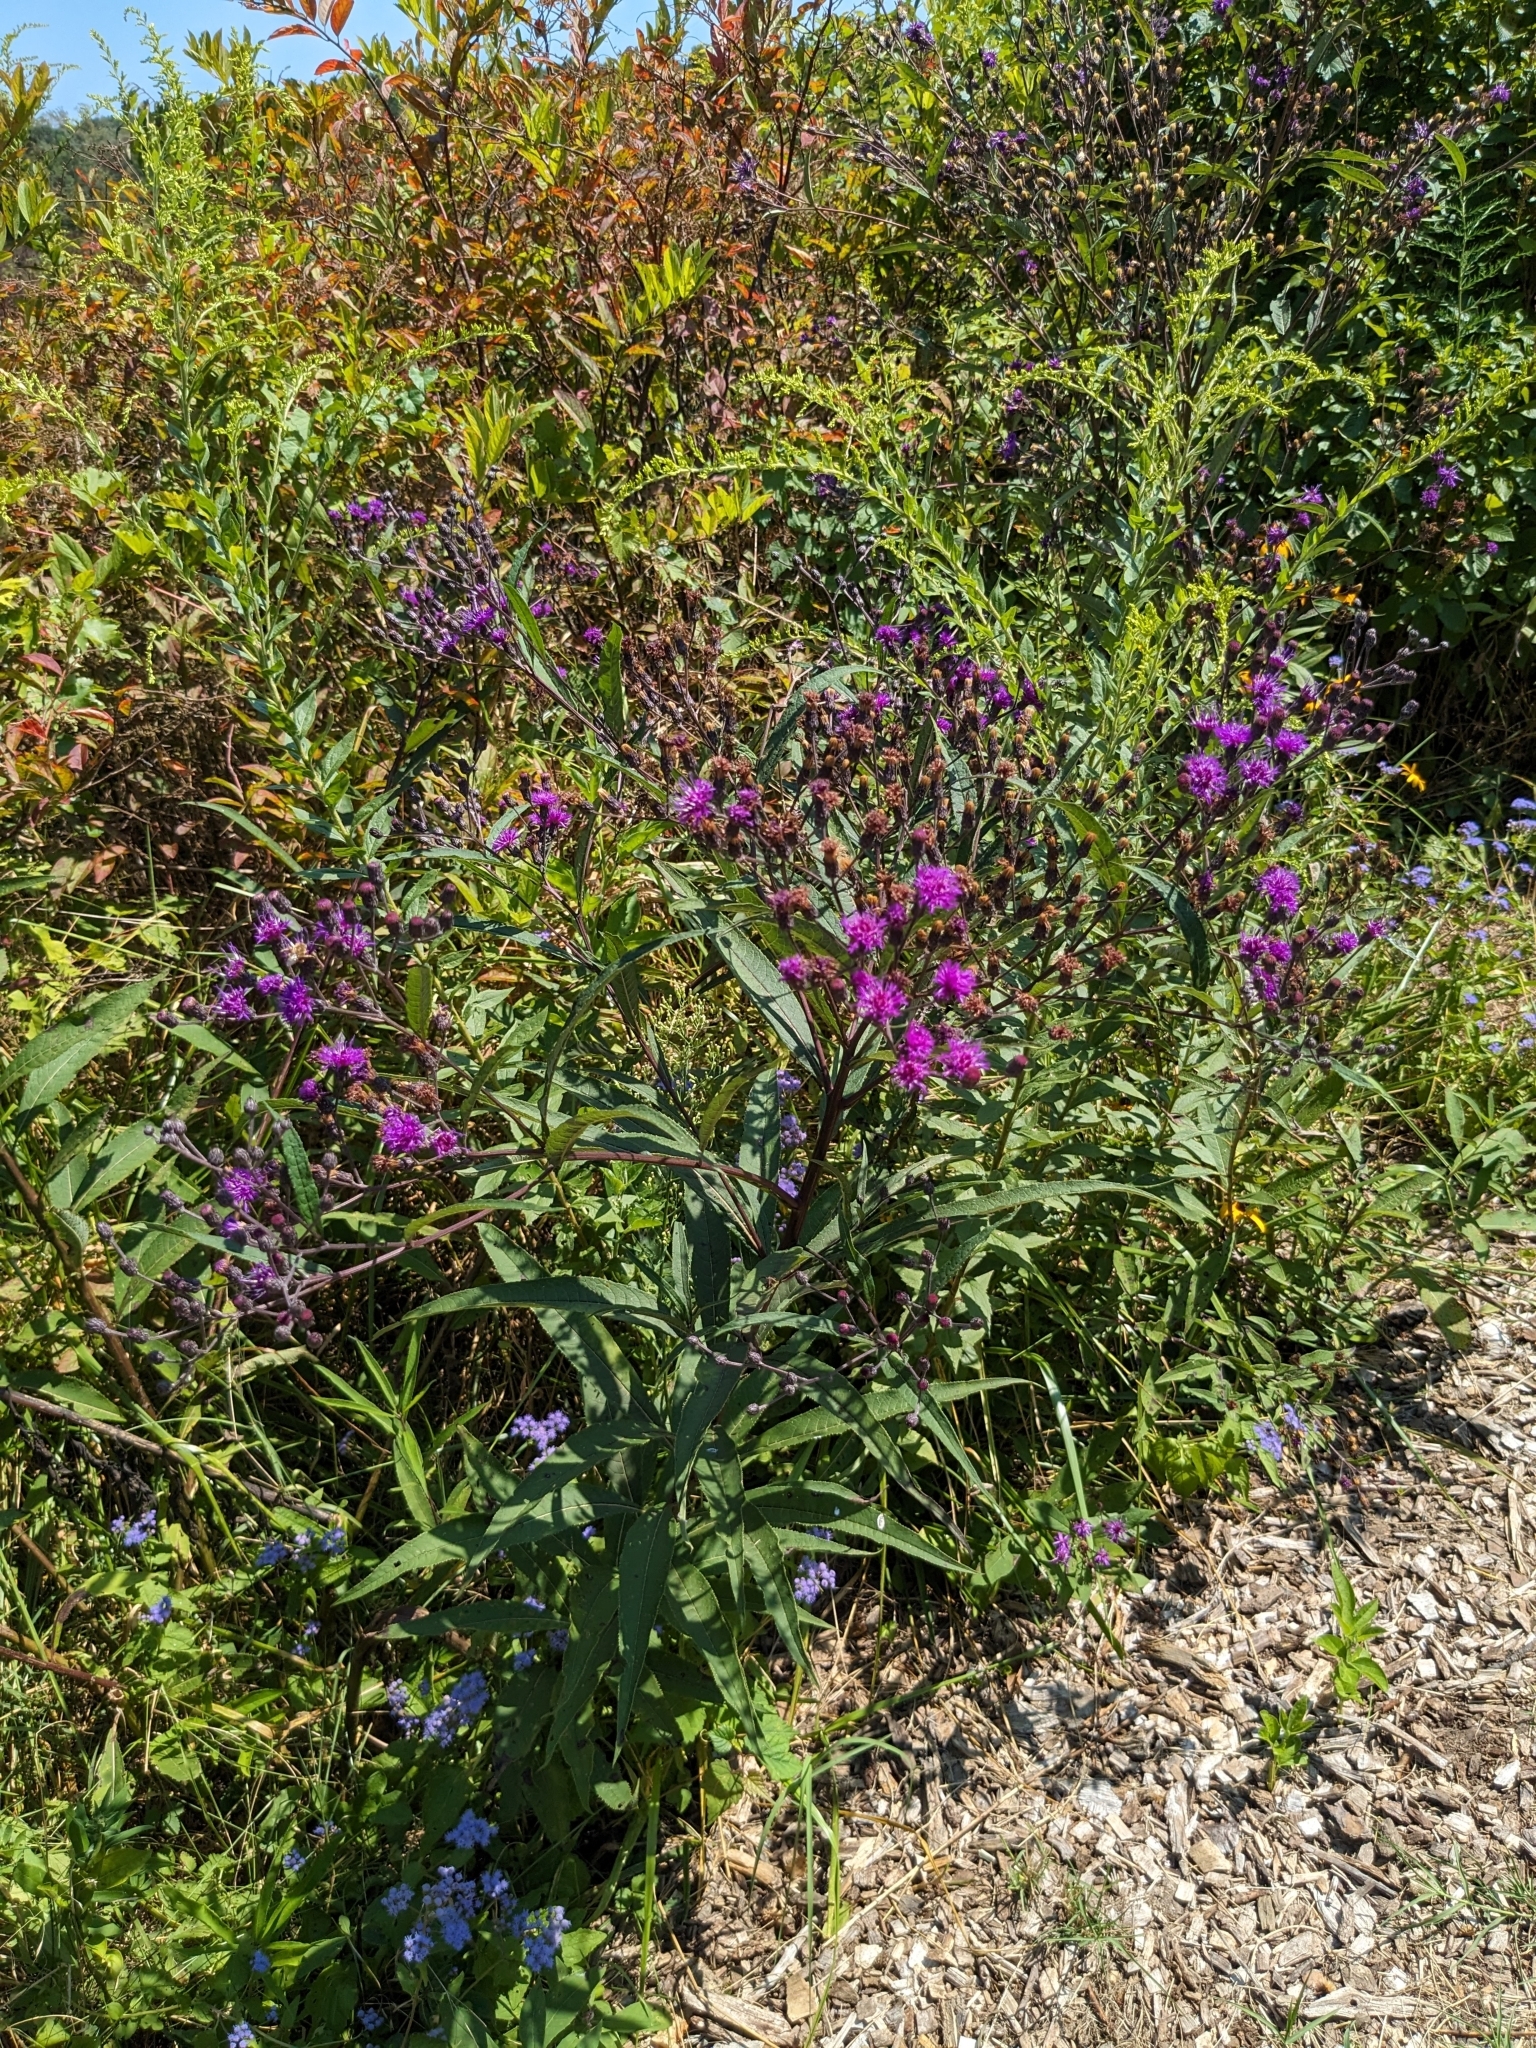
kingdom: Plantae
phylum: Tracheophyta
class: Magnoliopsida
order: Asterales
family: Asteraceae
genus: Vernonia
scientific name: Vernonia gigantea
